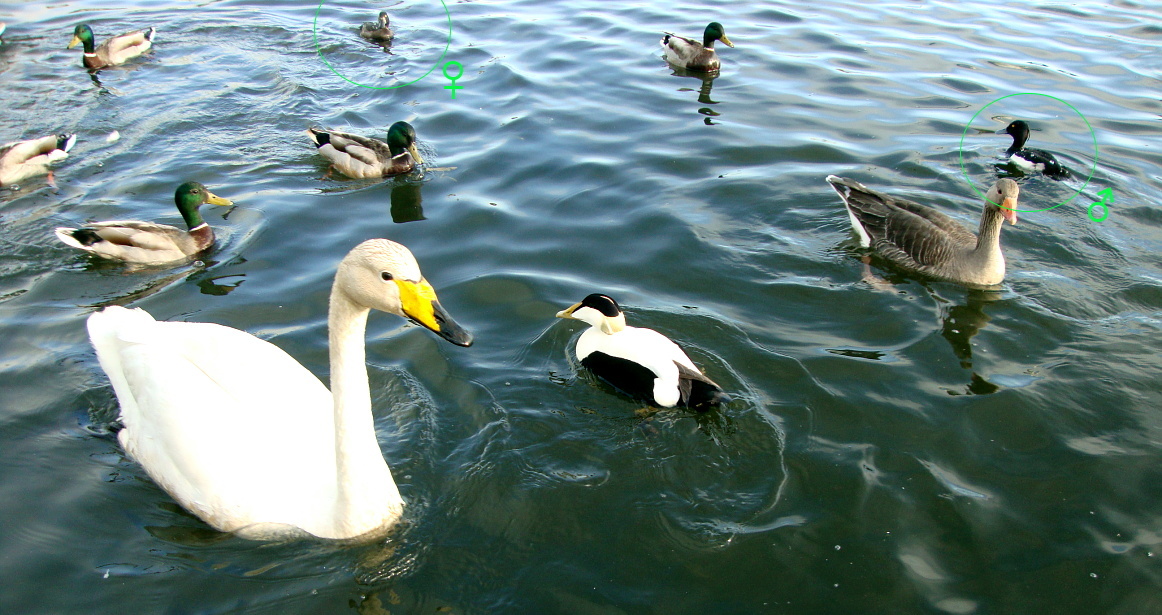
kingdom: Animalia
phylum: Chordata
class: Aves
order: Anseriformes
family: Anatidae
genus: Aythya
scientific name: Aythya fuligula
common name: Tufted duck
